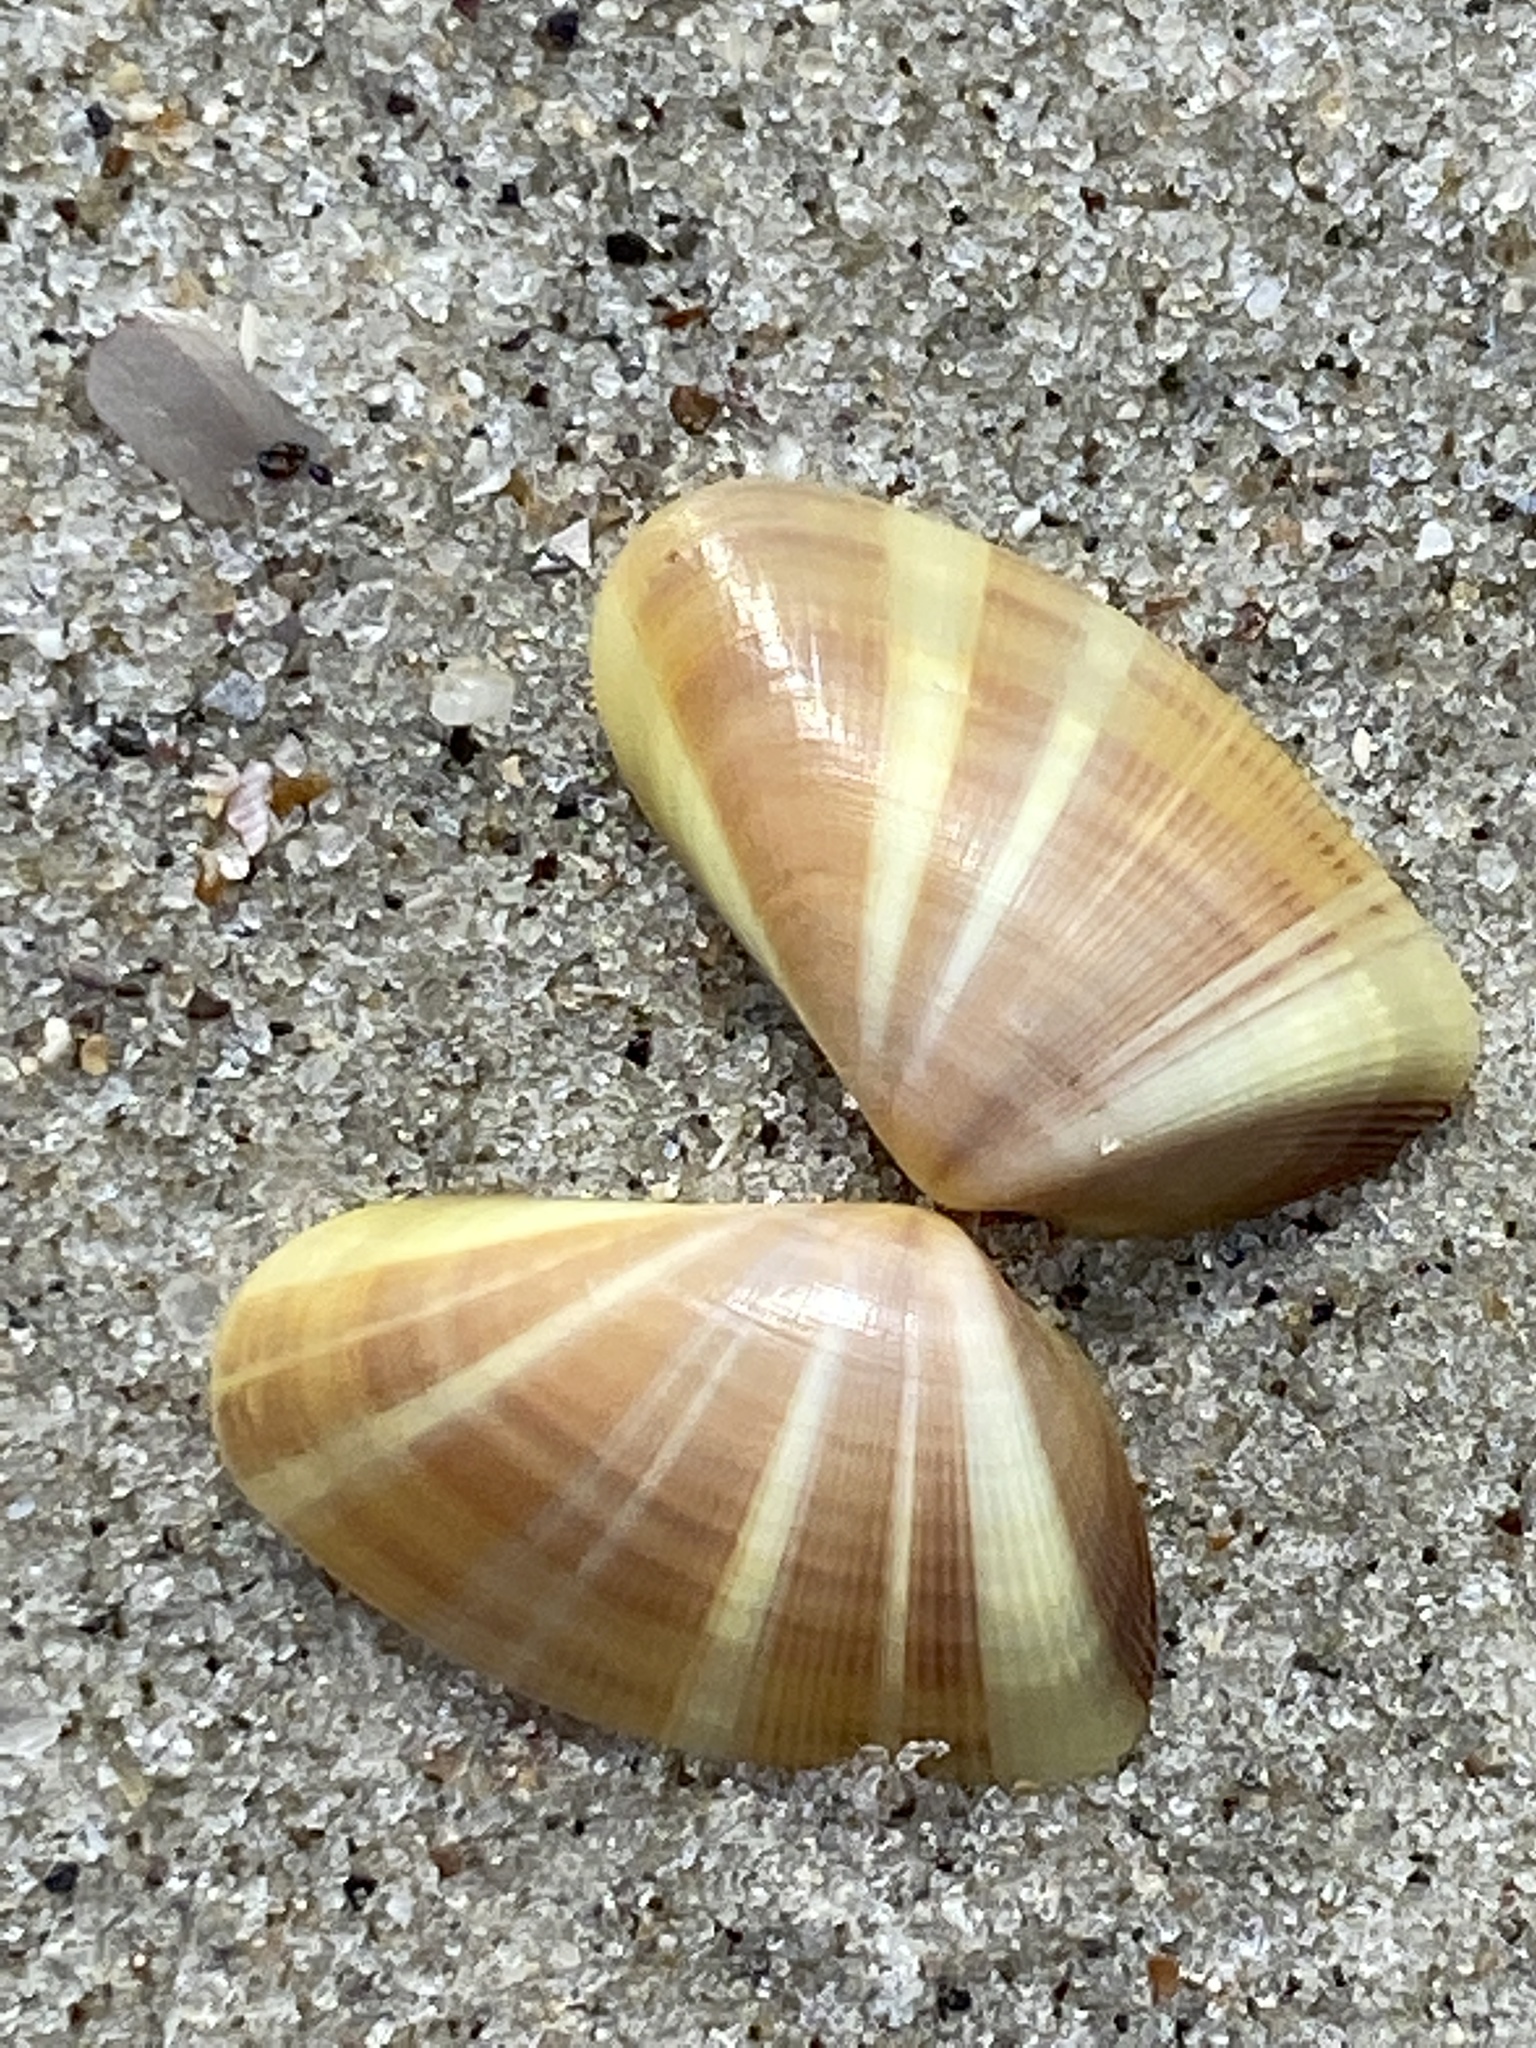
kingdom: Animalia
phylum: Mollusca
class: Bivalvia
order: Cardiida
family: Donacidae
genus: Donax
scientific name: Donax variabilis
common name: Butterfly shell
